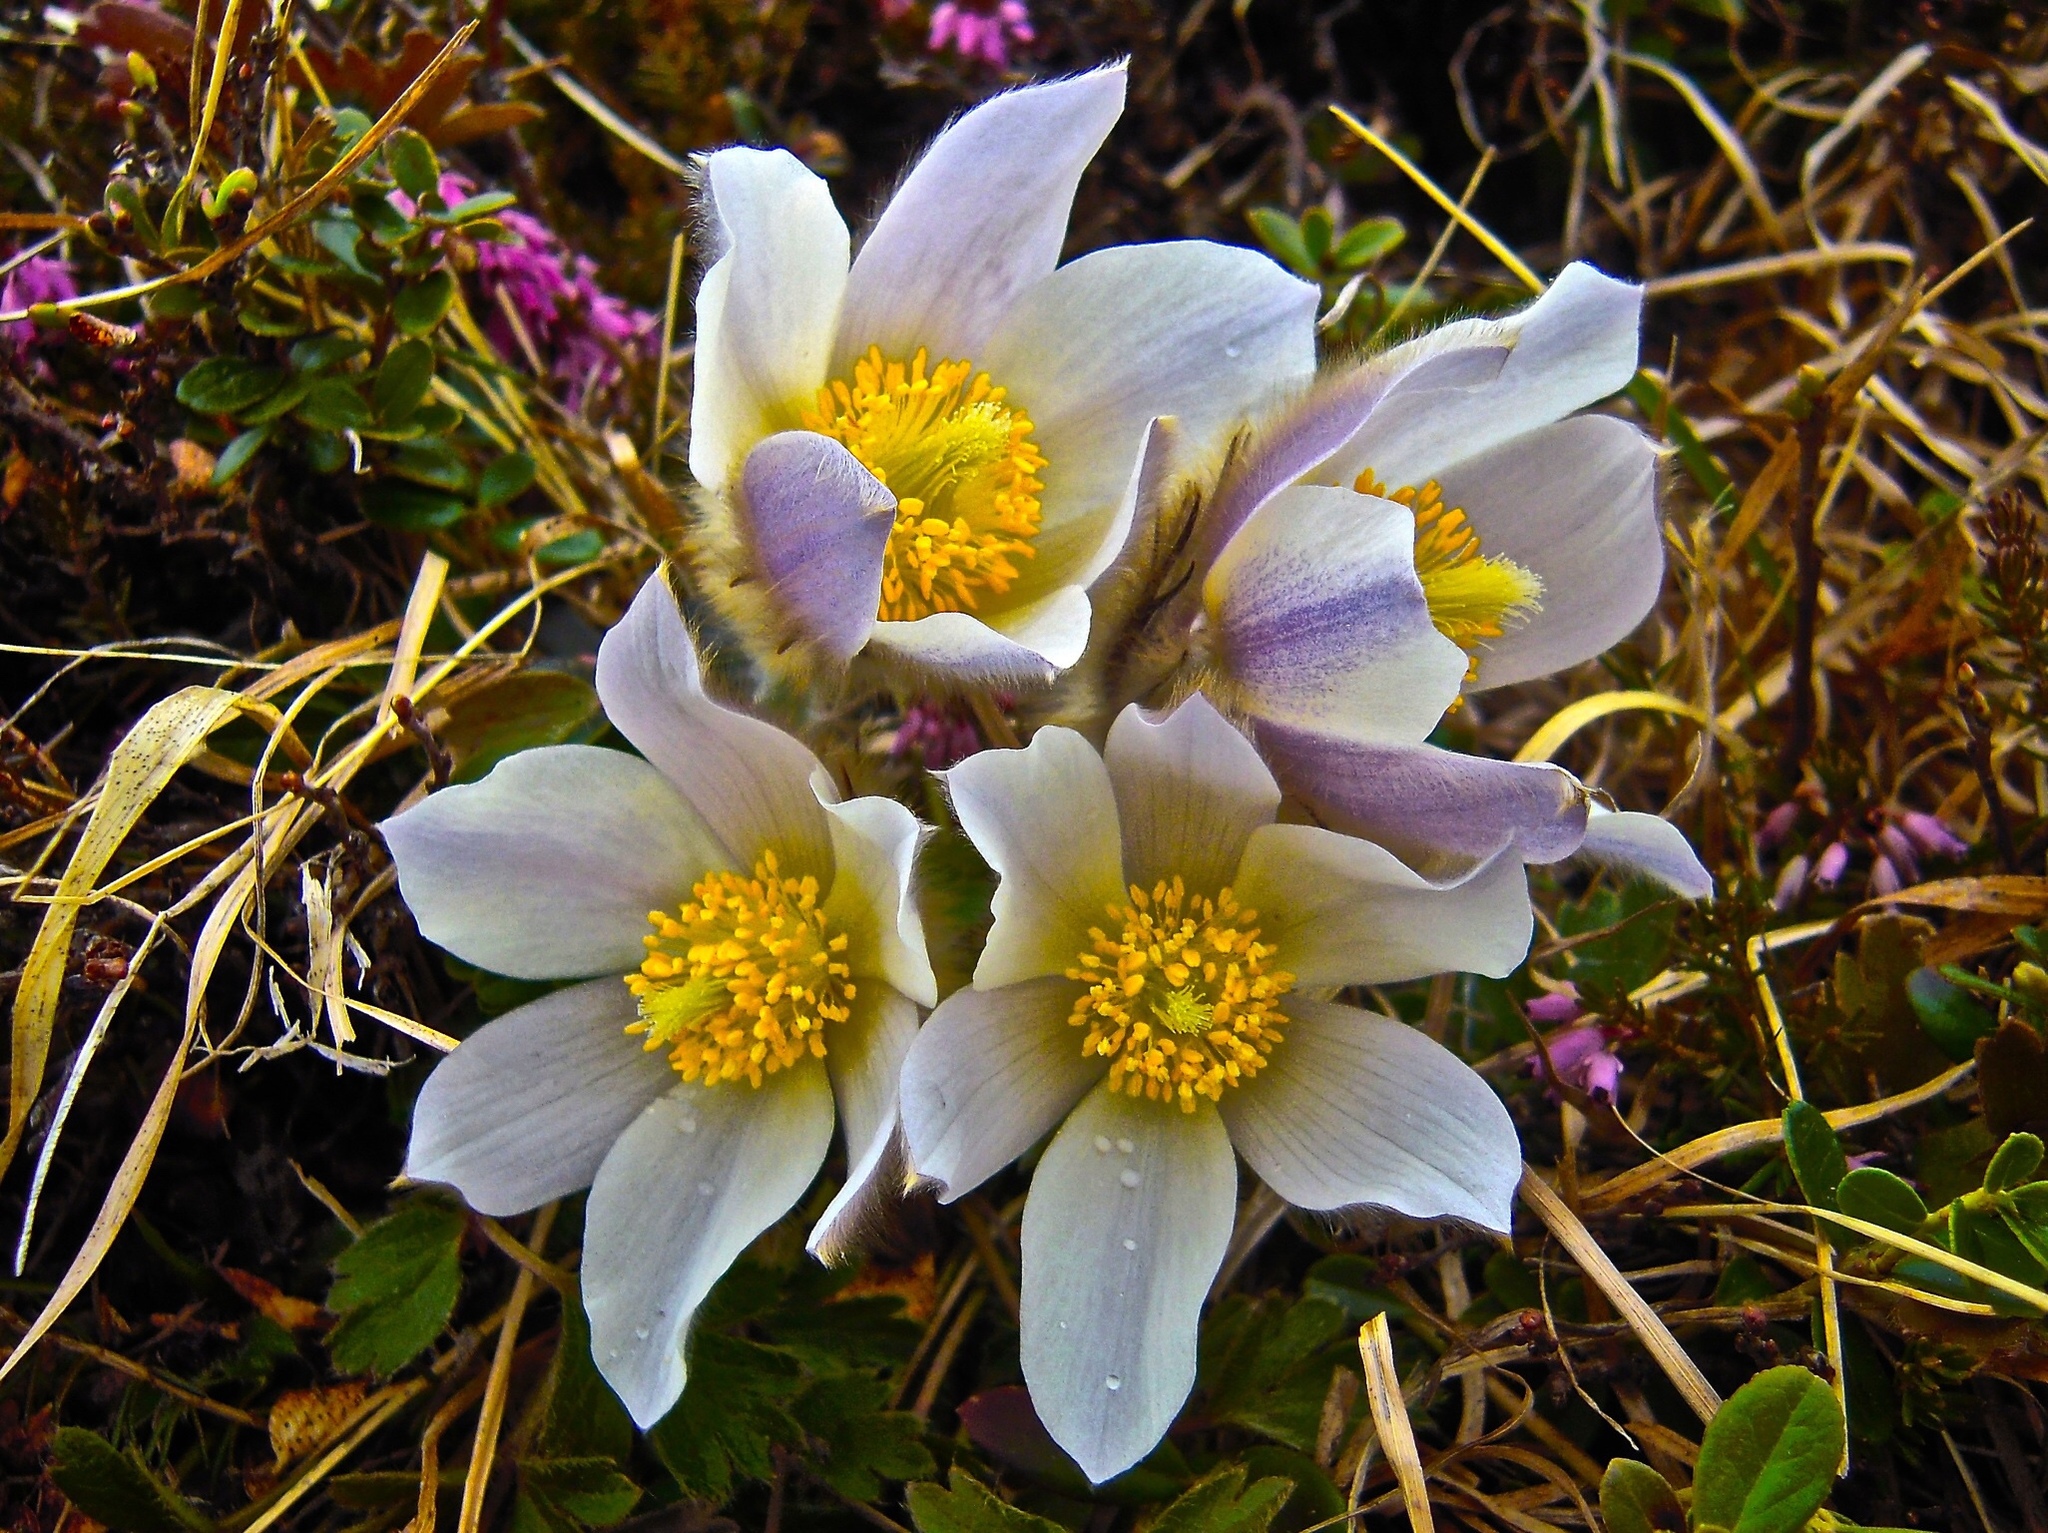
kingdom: Plantae
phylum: Tracheophyta
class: Magnoliopsida
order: Ranunculales
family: Ranunculaceae
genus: Pulsatilla
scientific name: Pulsatilla vernalis
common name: Spring pasque flower
